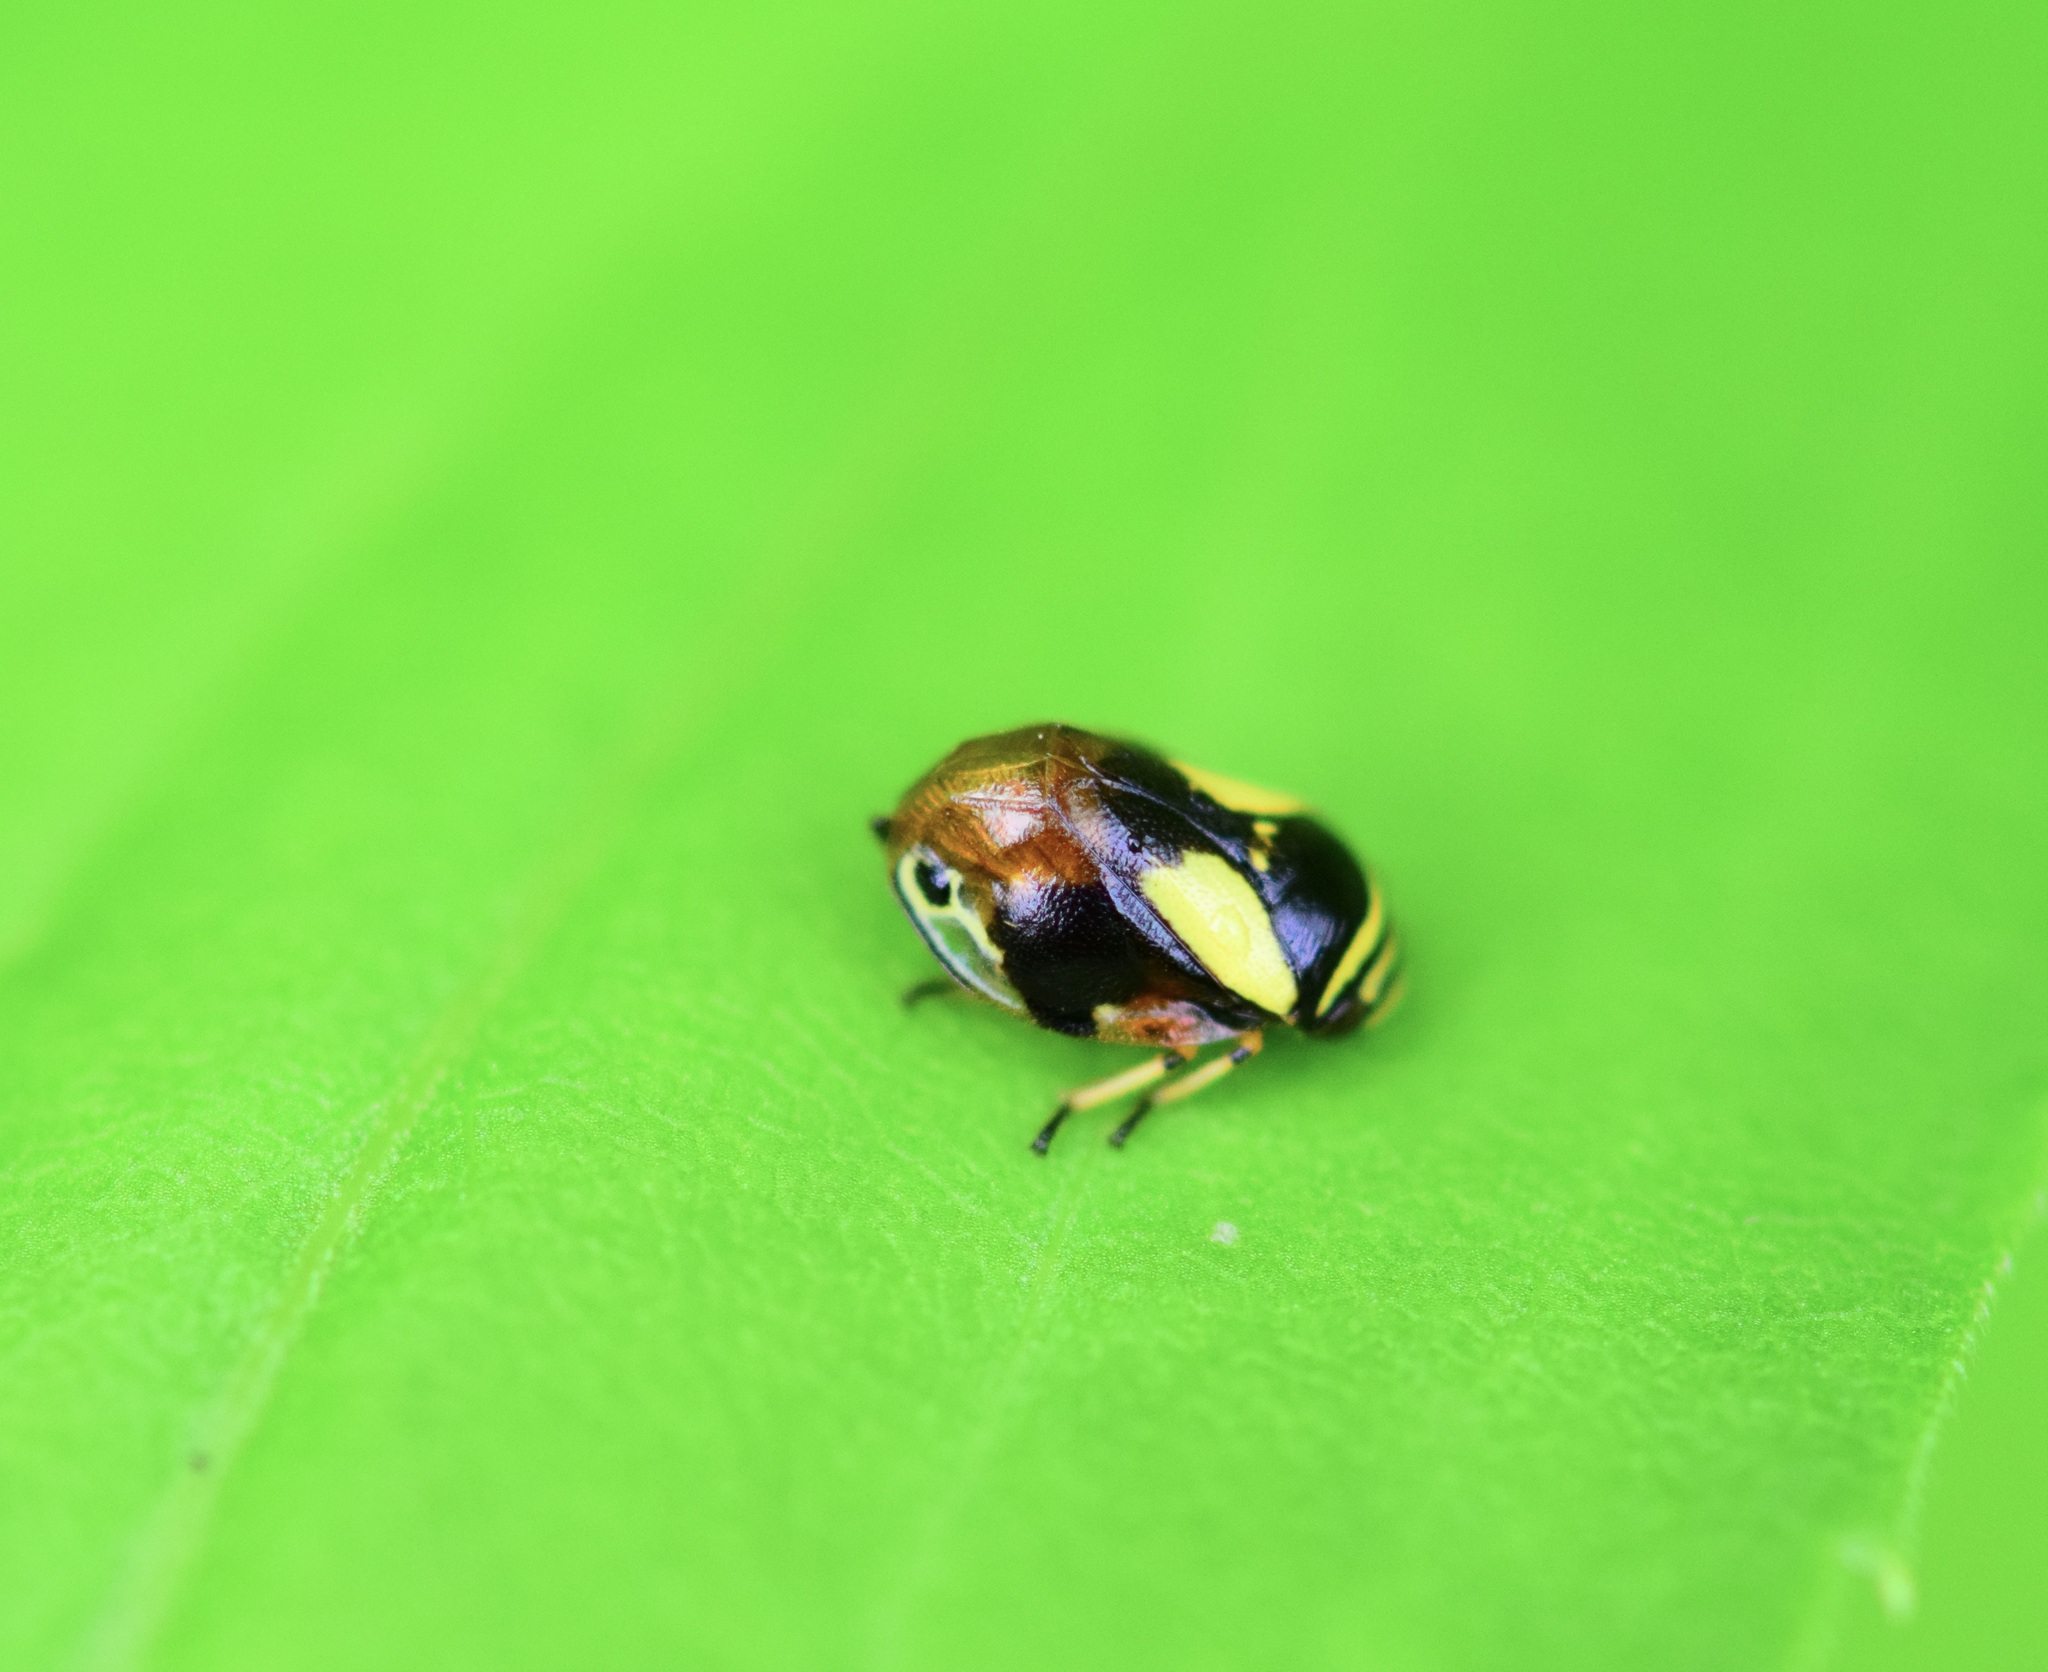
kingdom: Animalia
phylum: Arthropoda
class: Insecta
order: Hemiptera
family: Clastopteridae
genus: Clastoptera
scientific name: Clastoptera proteus
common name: Dogwood spittlebug
